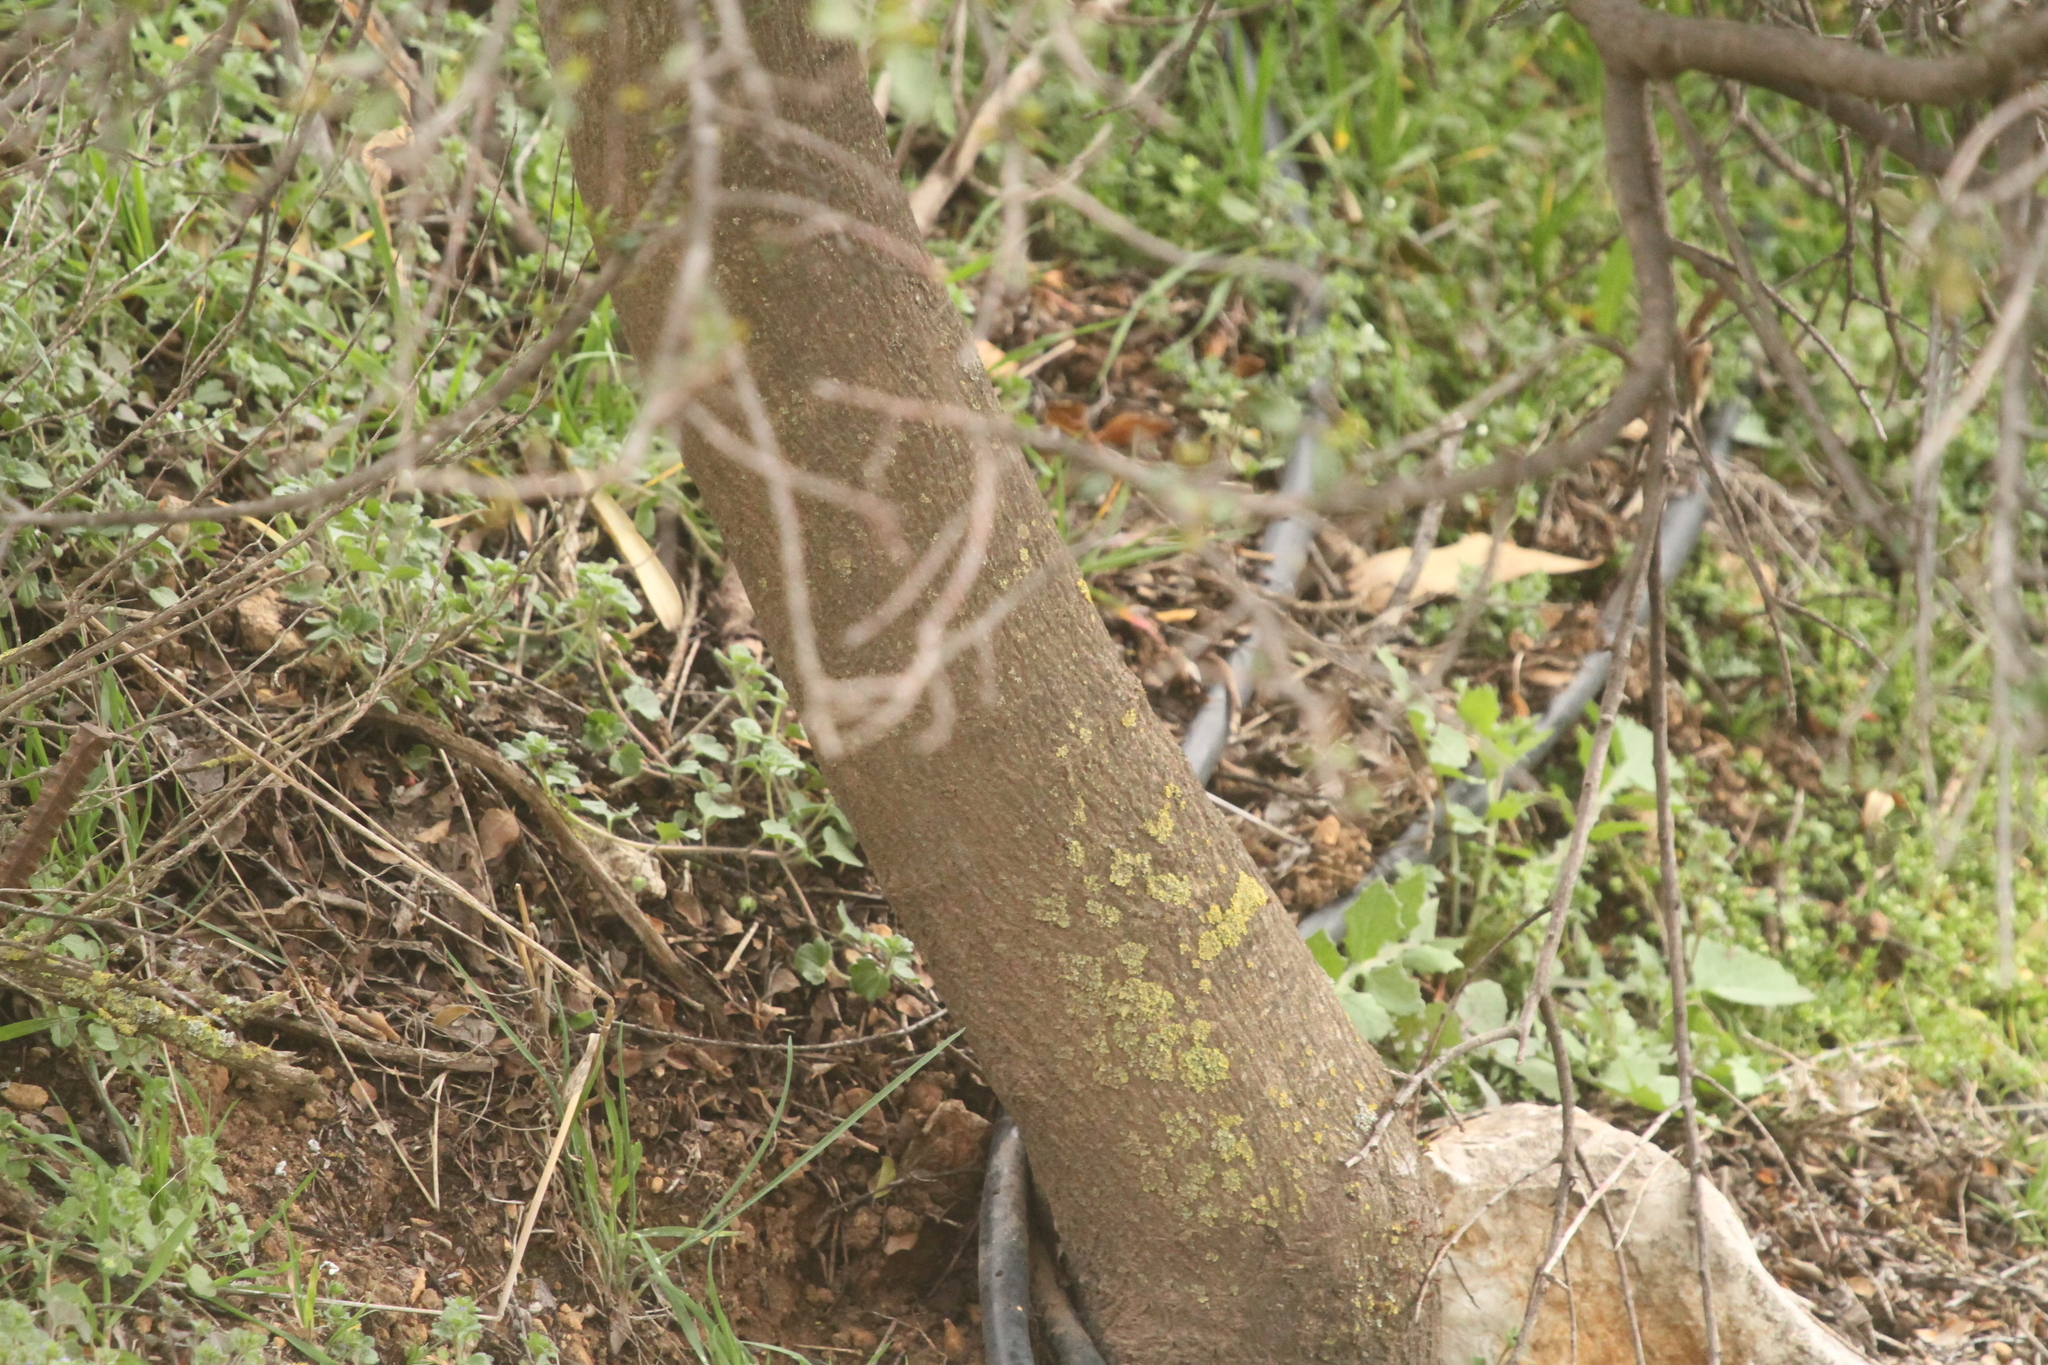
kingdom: Plantae
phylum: Tracheophyta
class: Magnoliopsida
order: Rosales
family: Rhamnaceae
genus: Rhamnus
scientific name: Rhamnus alaternus
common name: Mediterranean buckthorn
